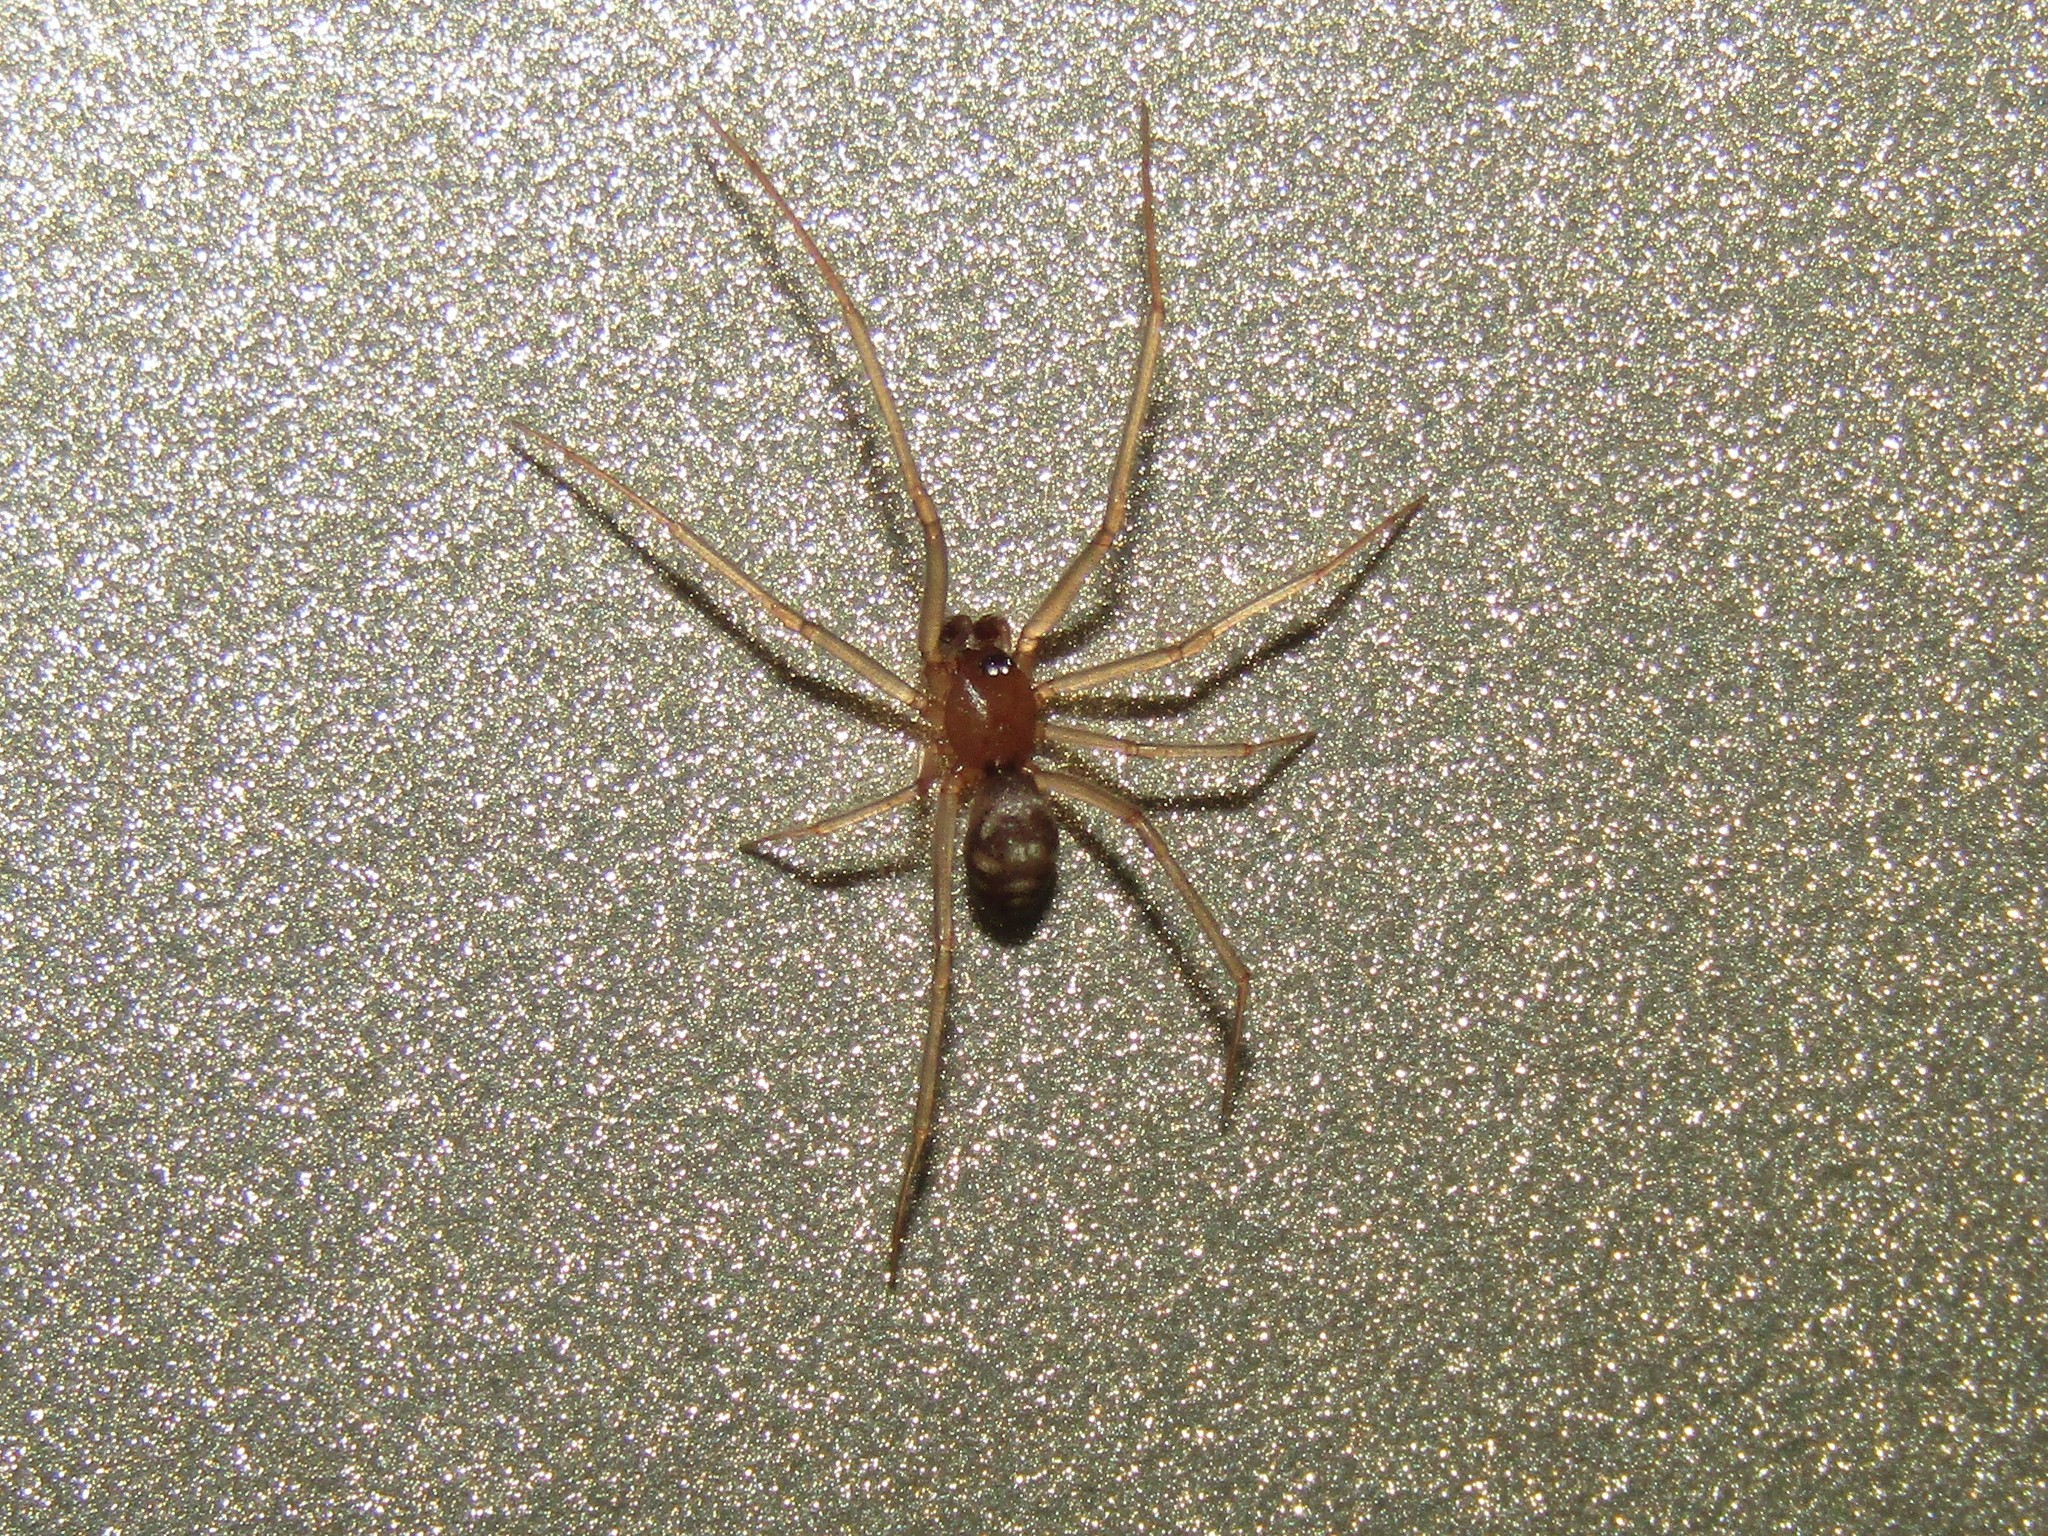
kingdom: Animalia
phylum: Arthropoda
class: Arachnida
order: Araneae
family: Theridiidae
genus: Steatoda
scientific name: Steatoda grossa
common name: False black widow
